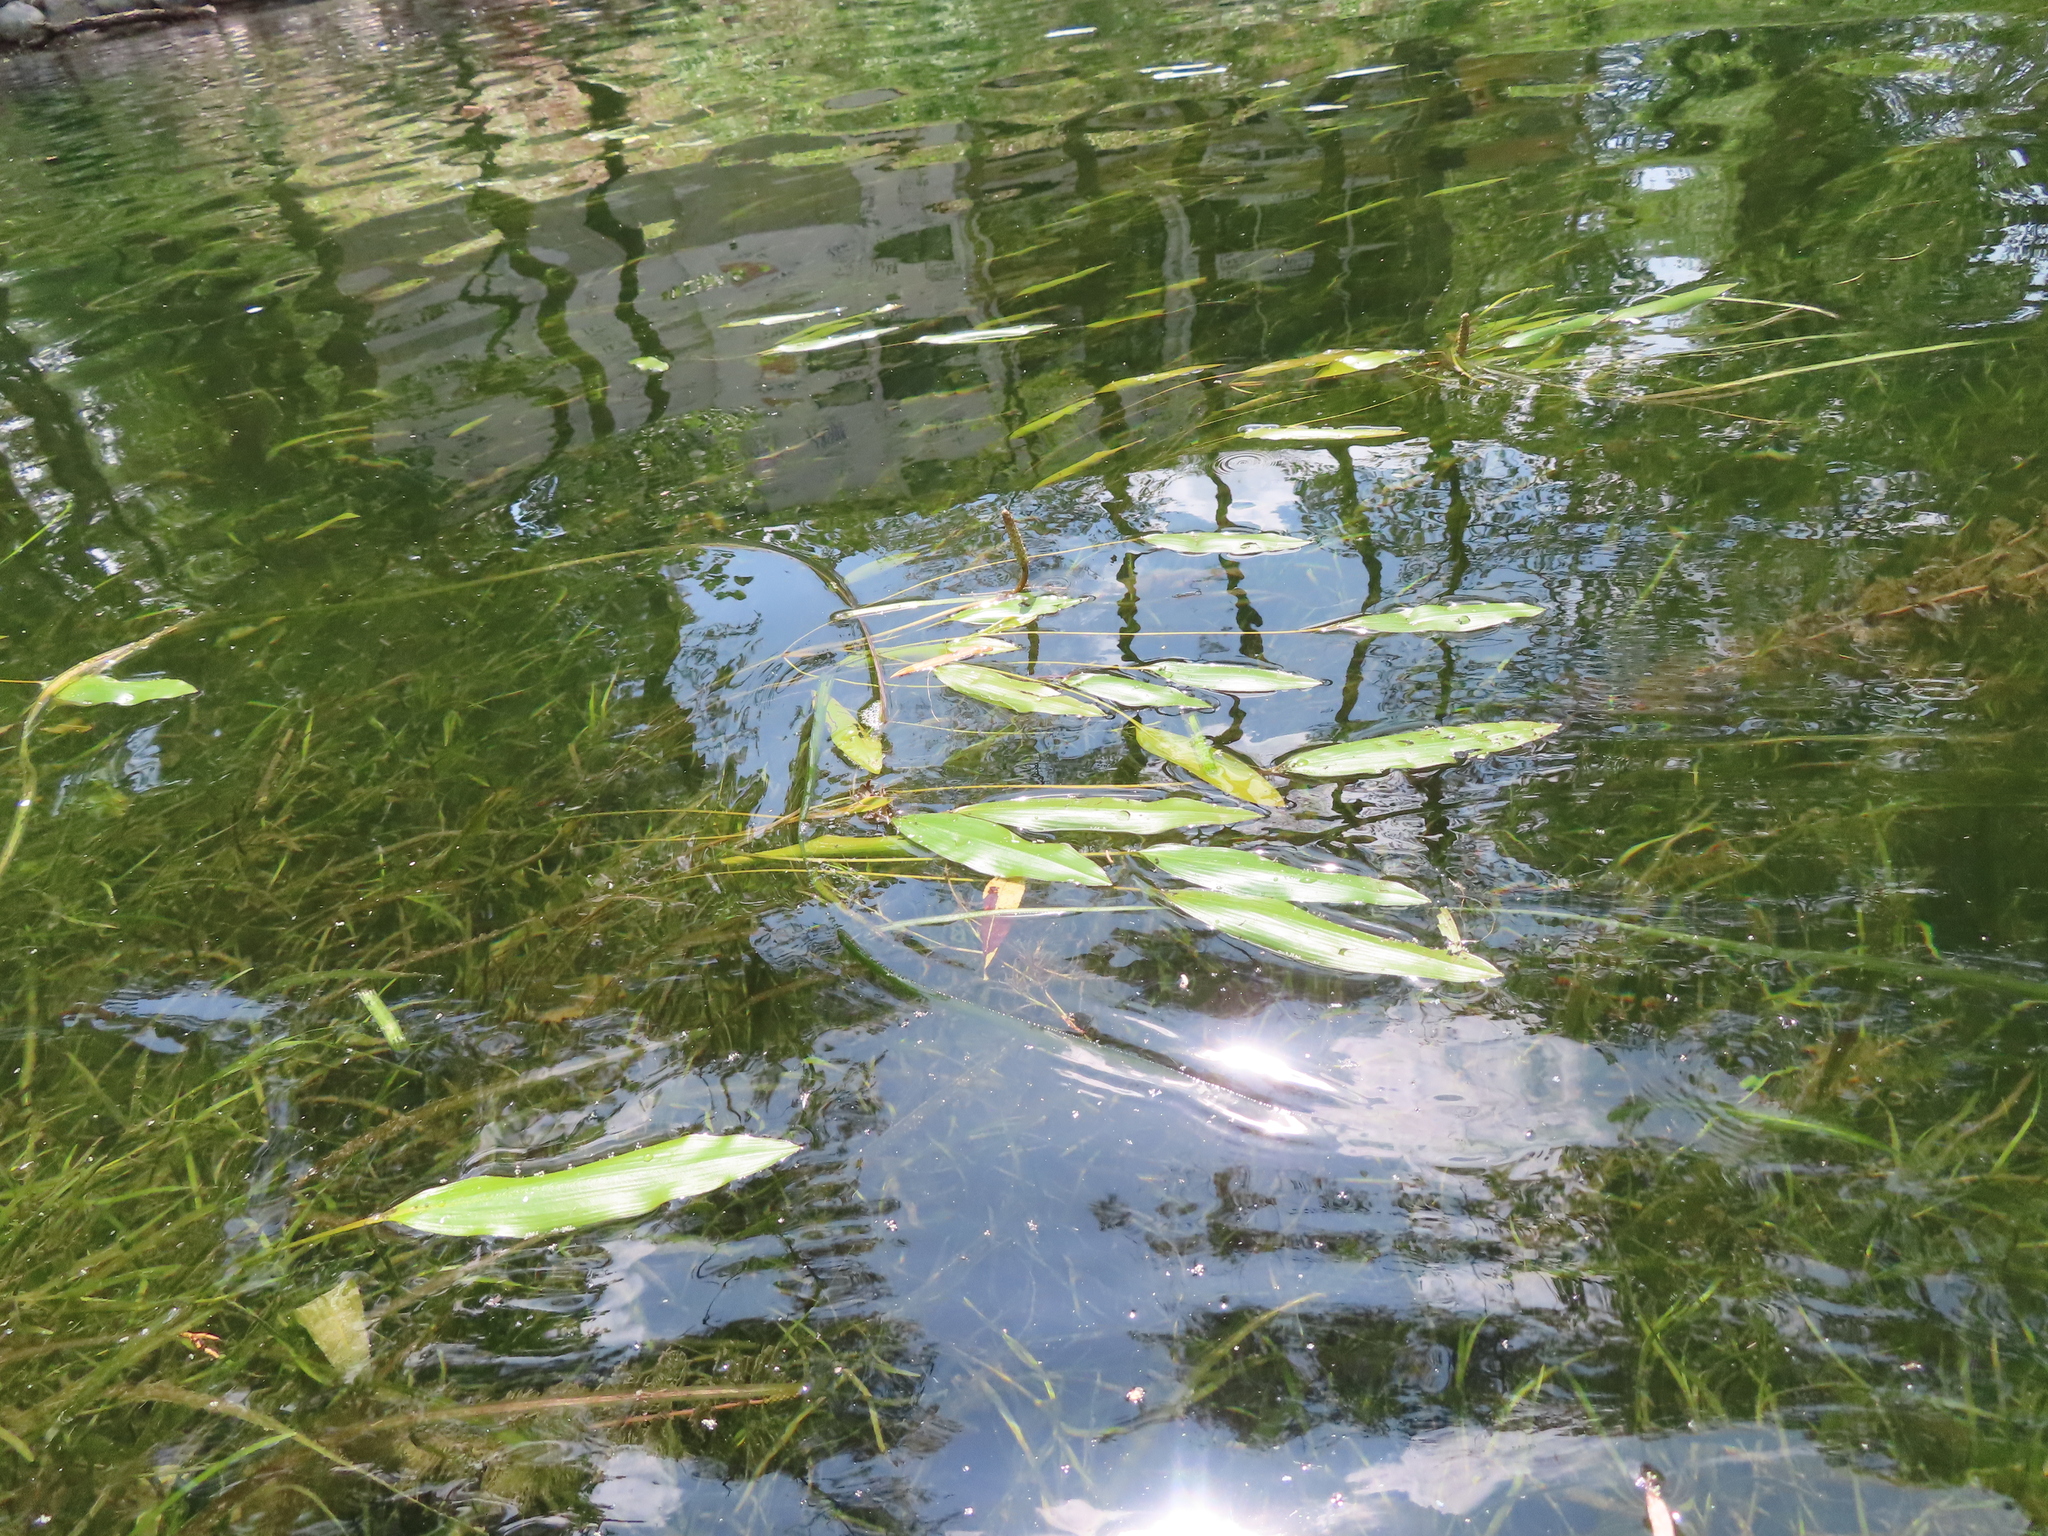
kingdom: Plantae
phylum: Tracheophyta
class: Liliopsida
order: Alismatales
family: Potamogetonaceae
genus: Potamogeton
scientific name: Potamogeton nodosus
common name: Loddon pondweed
